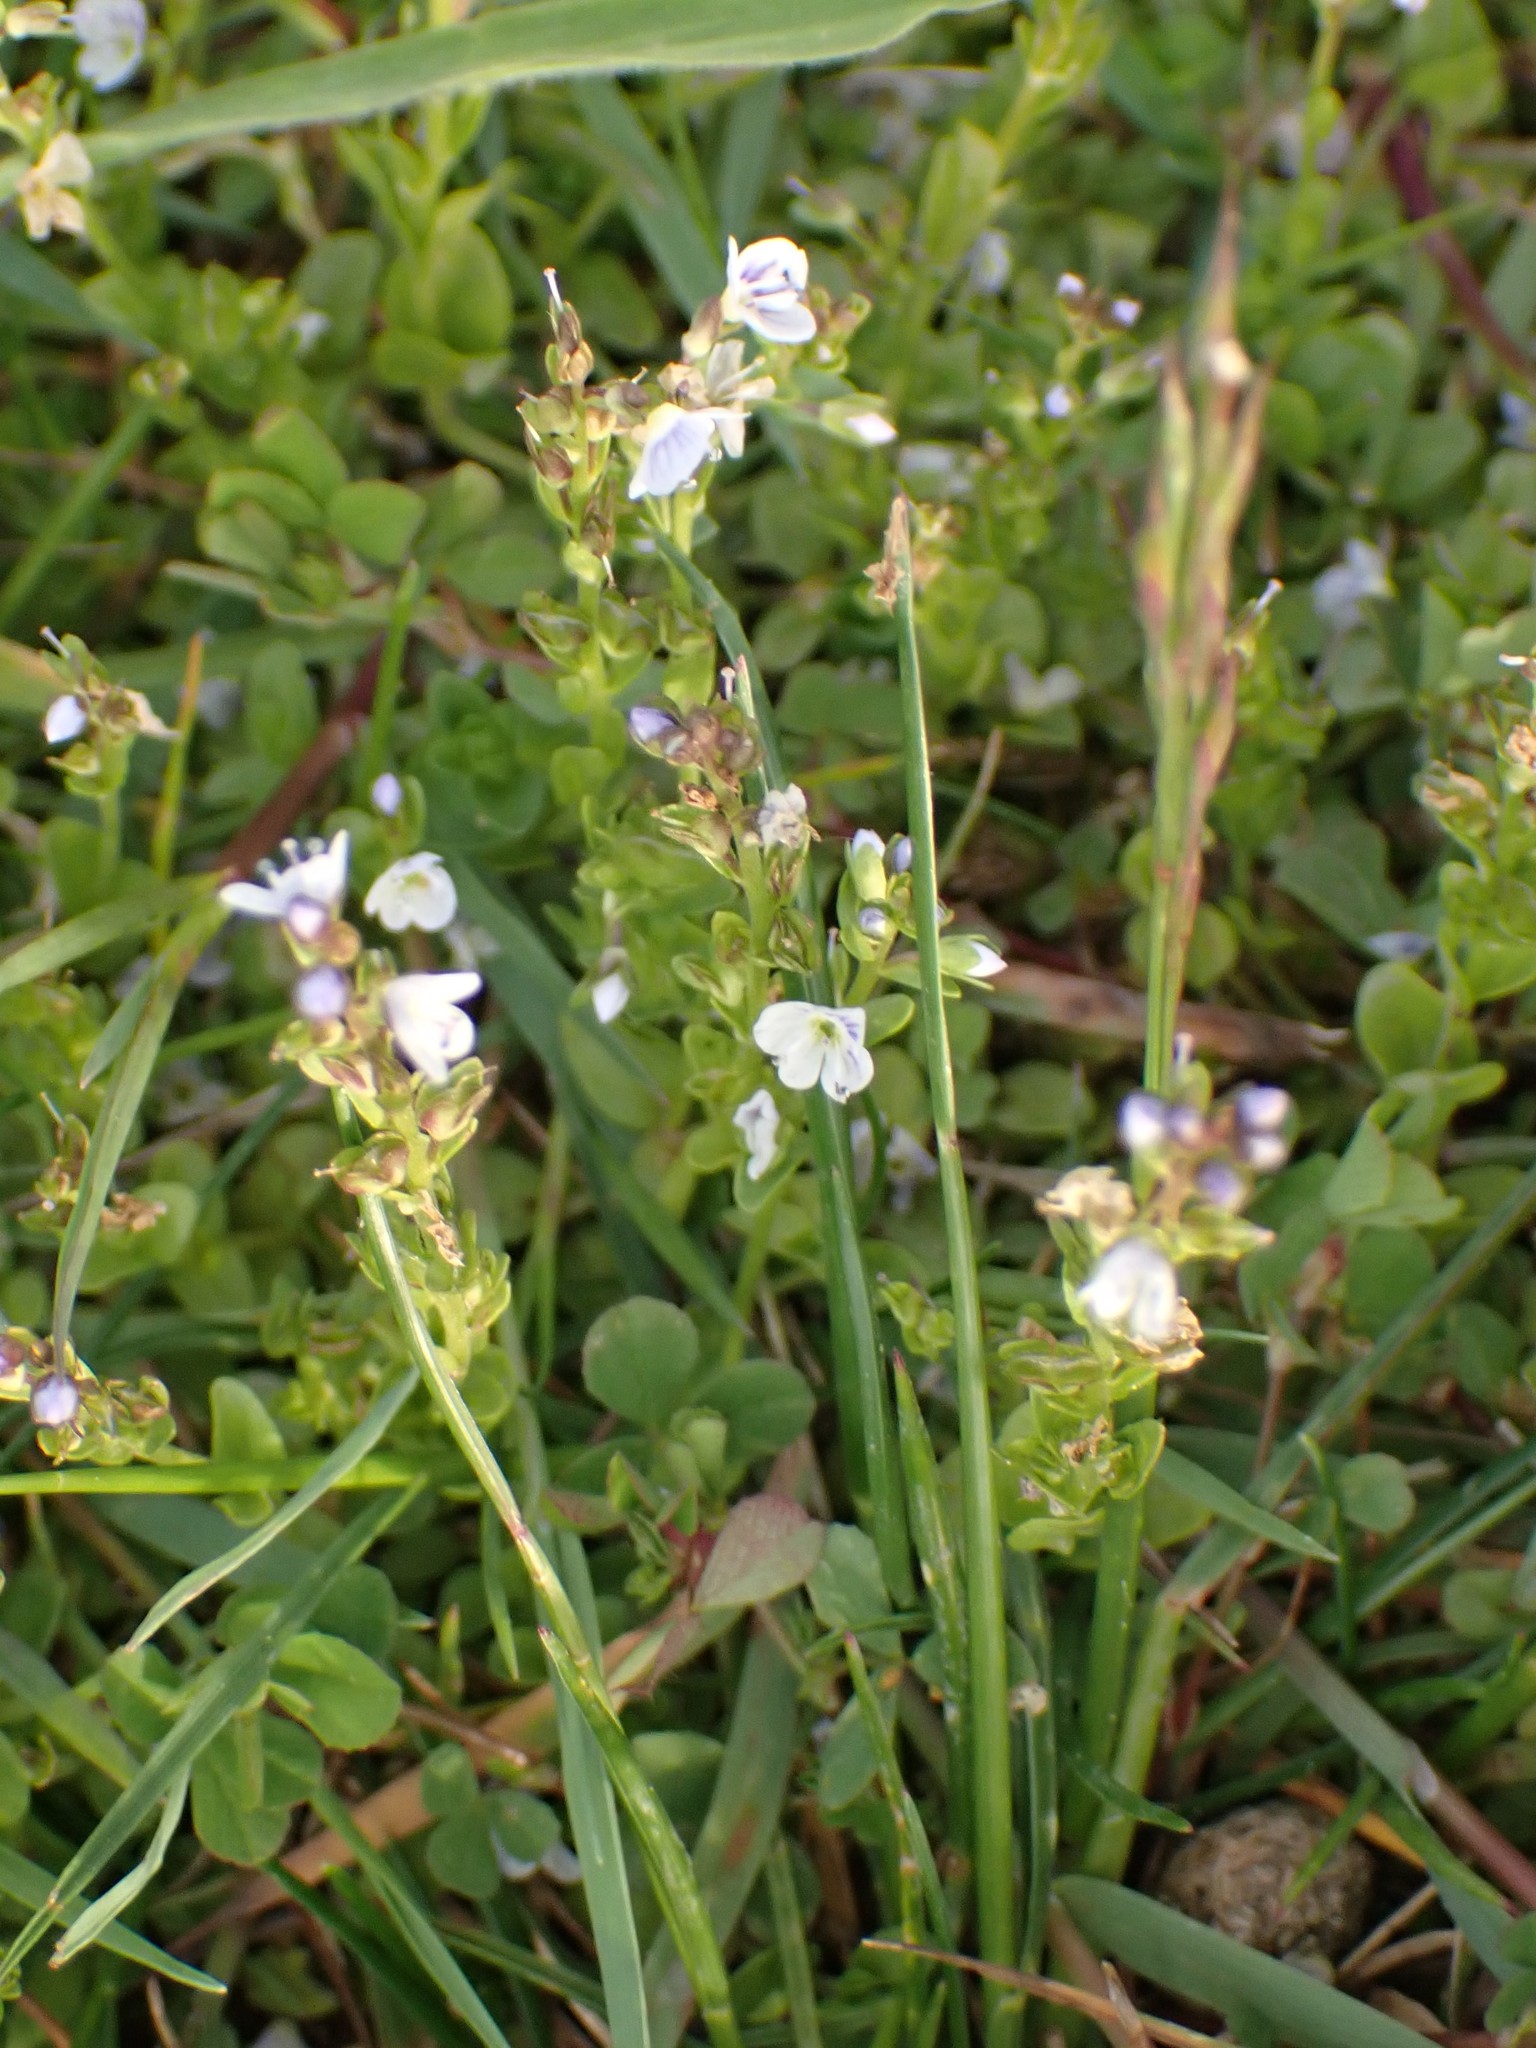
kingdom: Plantae
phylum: Tracheophyta
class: Magnoliopsida
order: Lamiales
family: Plantaginaceae
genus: Veronica
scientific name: Veronica serpyllifolia
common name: Thyme-leaved speedwell
